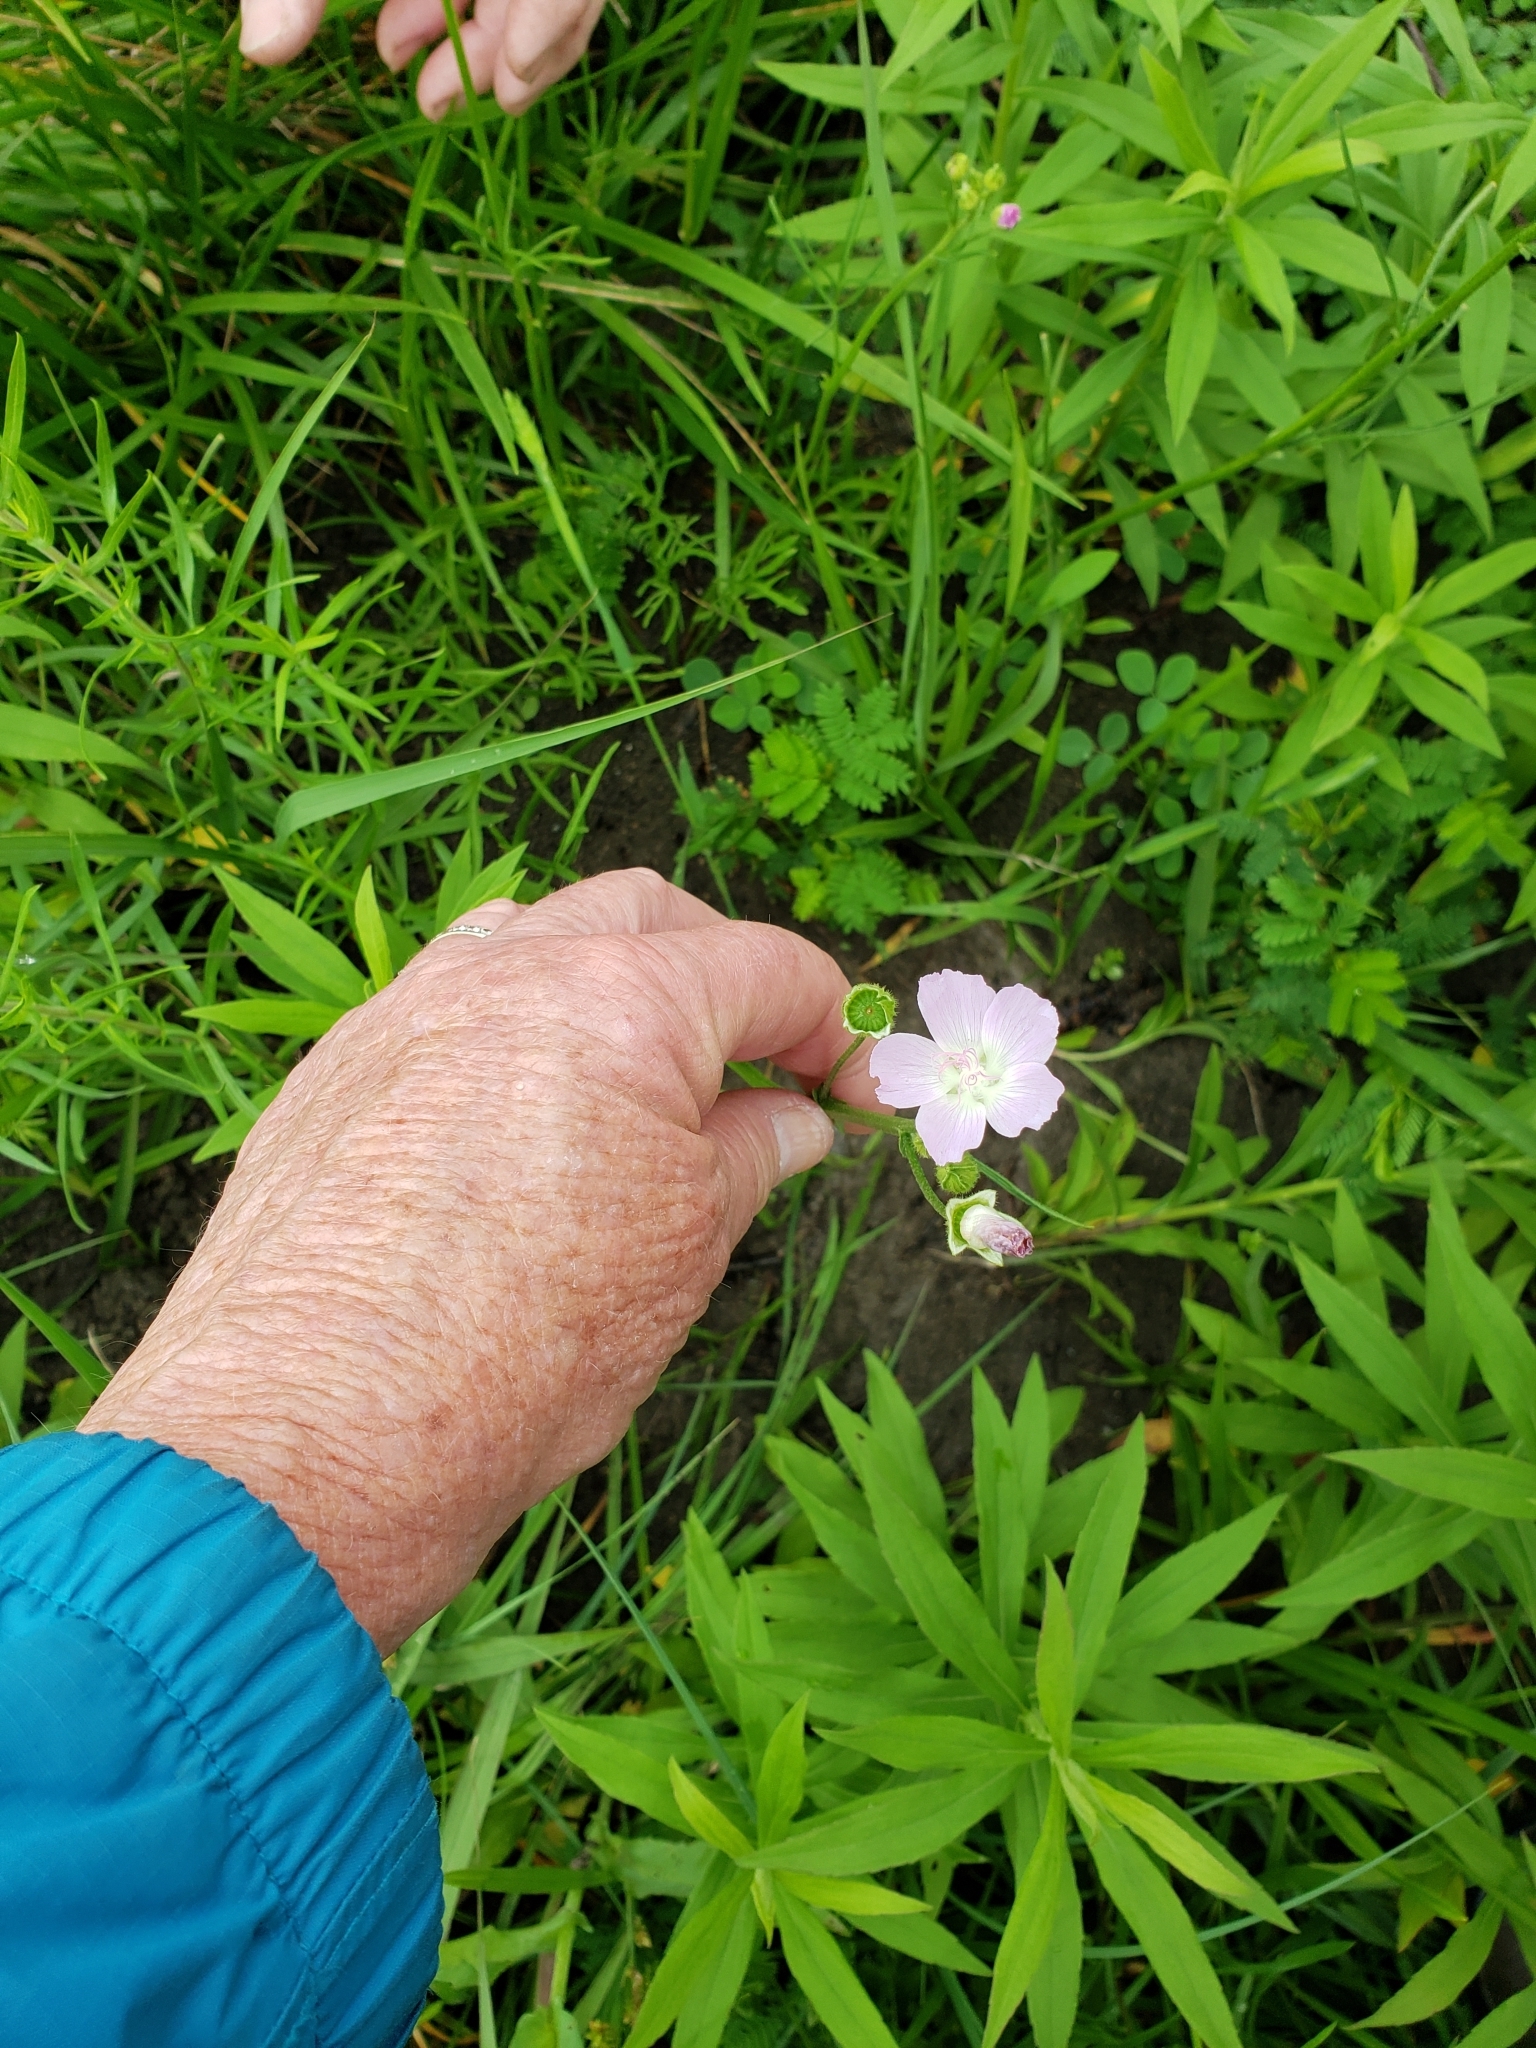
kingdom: Plantae
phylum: Tracheophyta
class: Magnoliopsida
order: Myrtales
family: Onagraceae
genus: Oenothera
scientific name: Oenothera speciosa
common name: White evening-primrose
